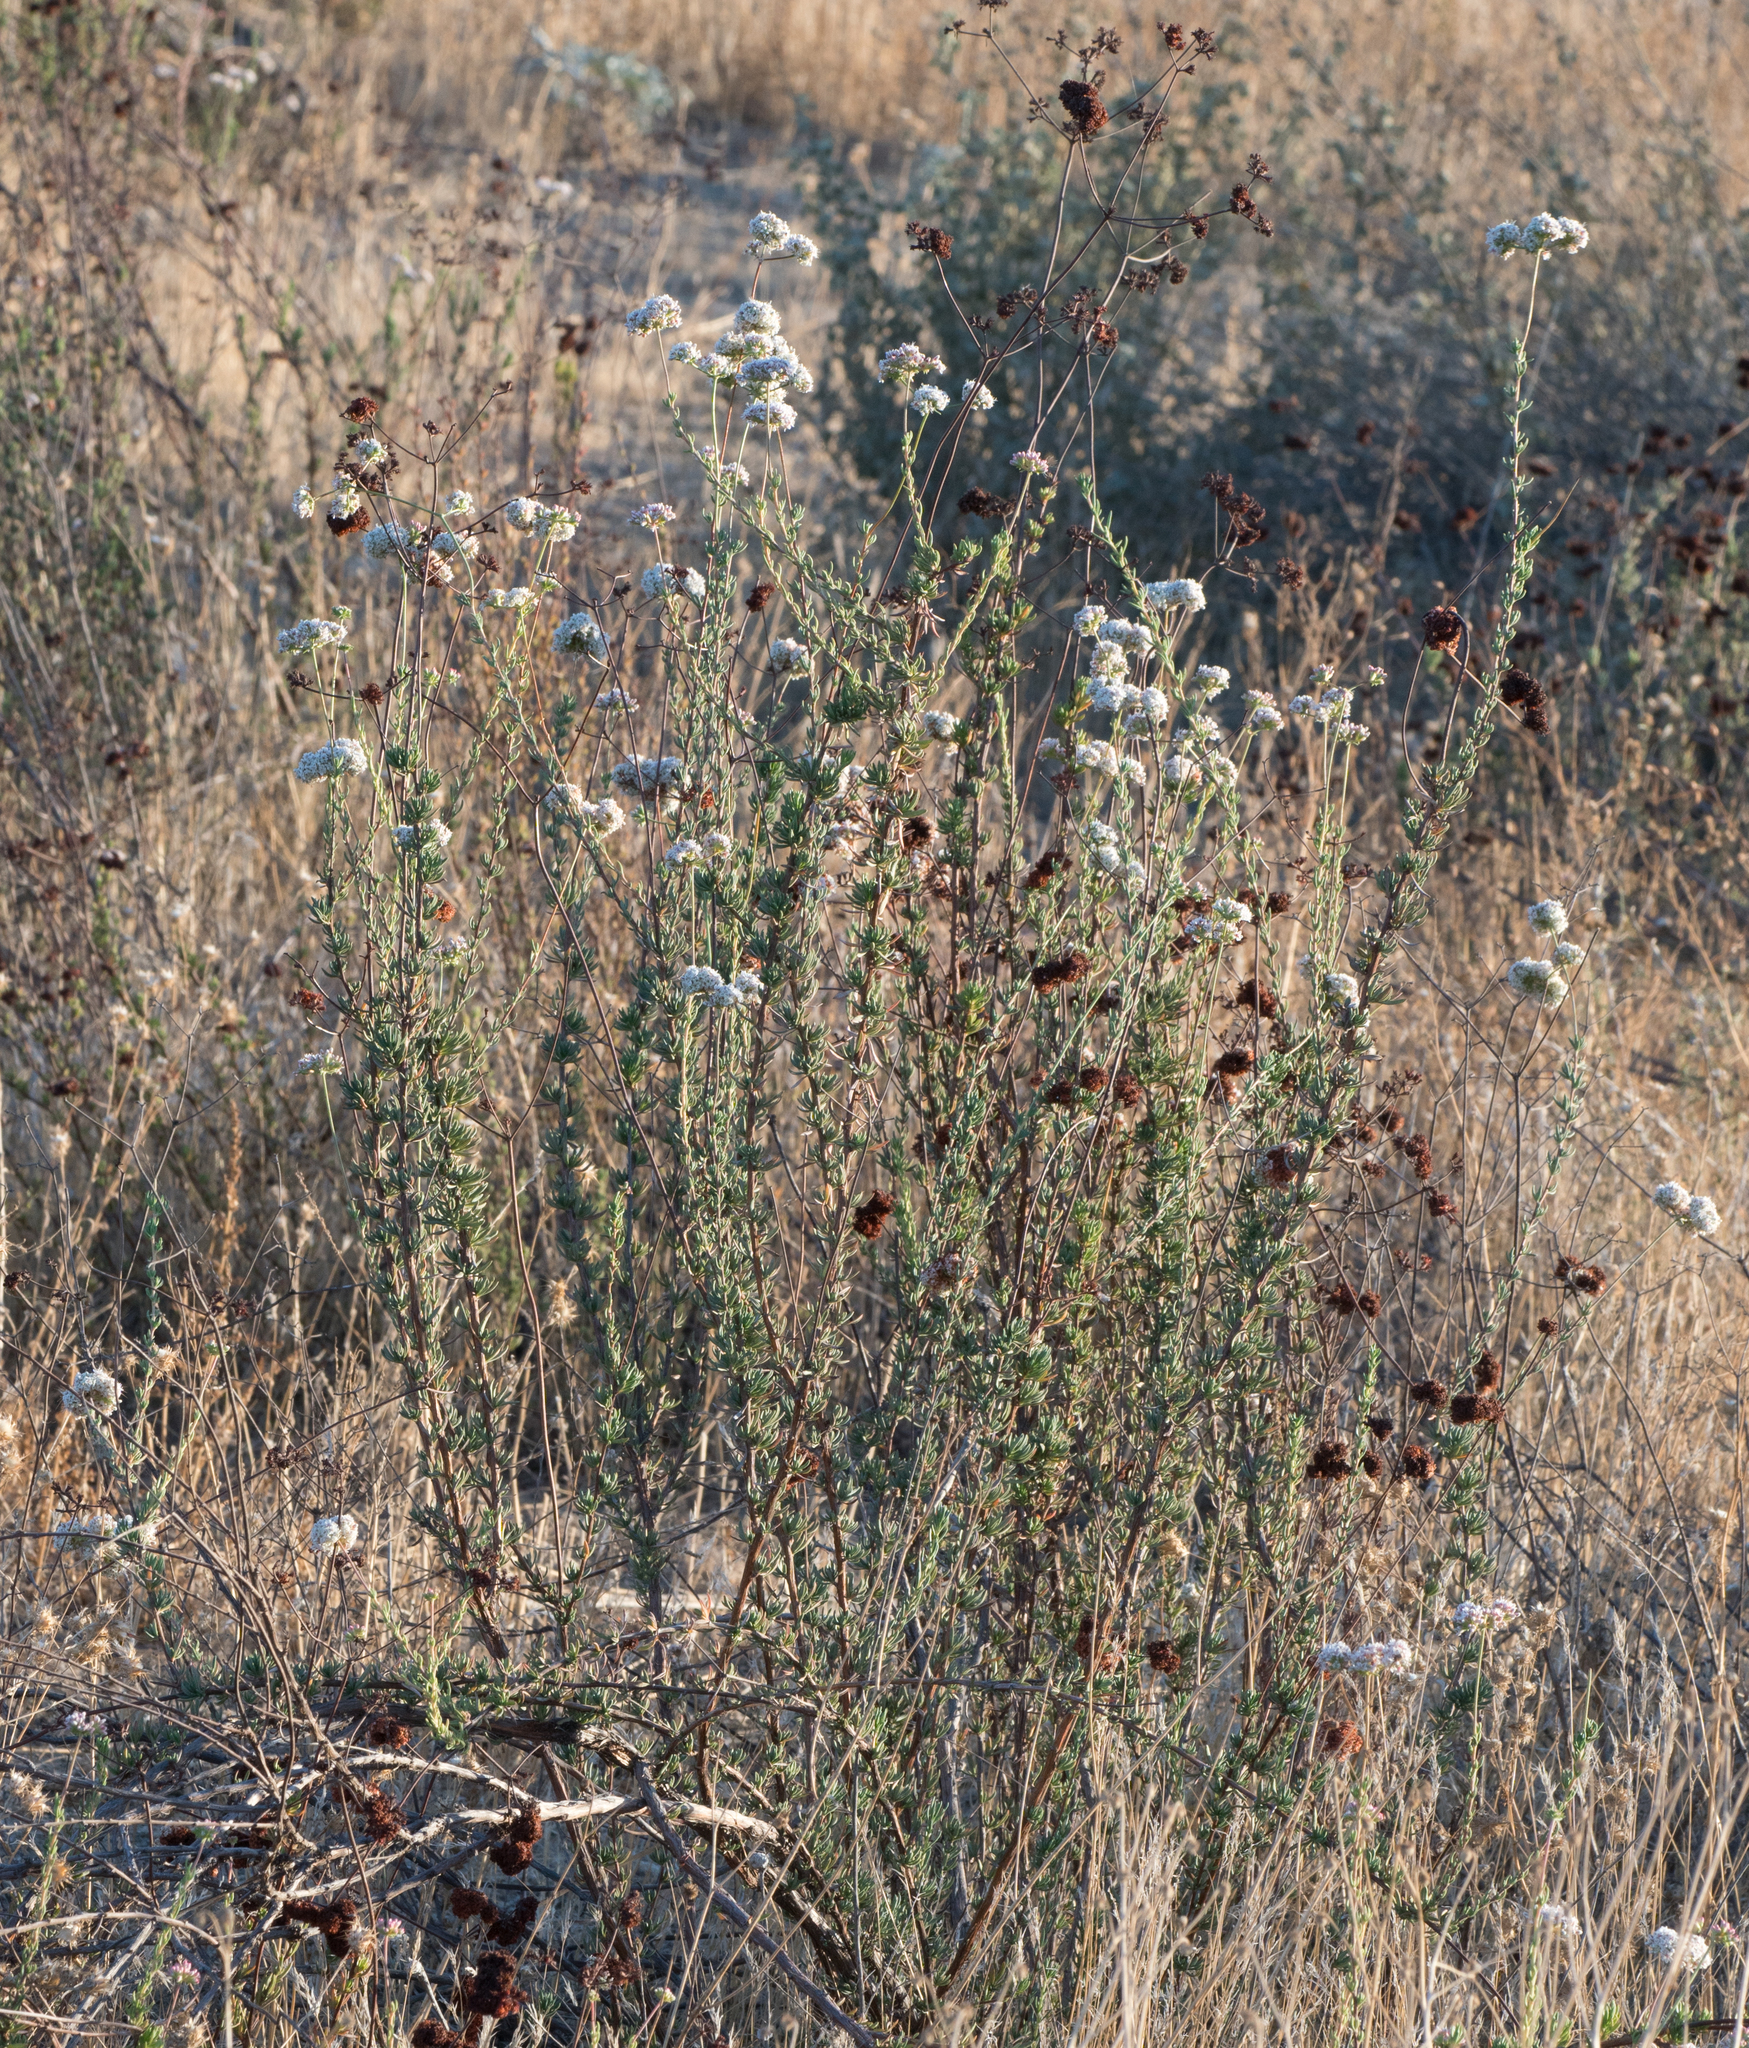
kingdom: Plantae
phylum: Tracheophyta
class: Magnoliopsida
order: Caryophyllales
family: Polygonaceae
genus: Eriogonum
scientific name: Eriogonum fasciculatum
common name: California wild buckwheat
